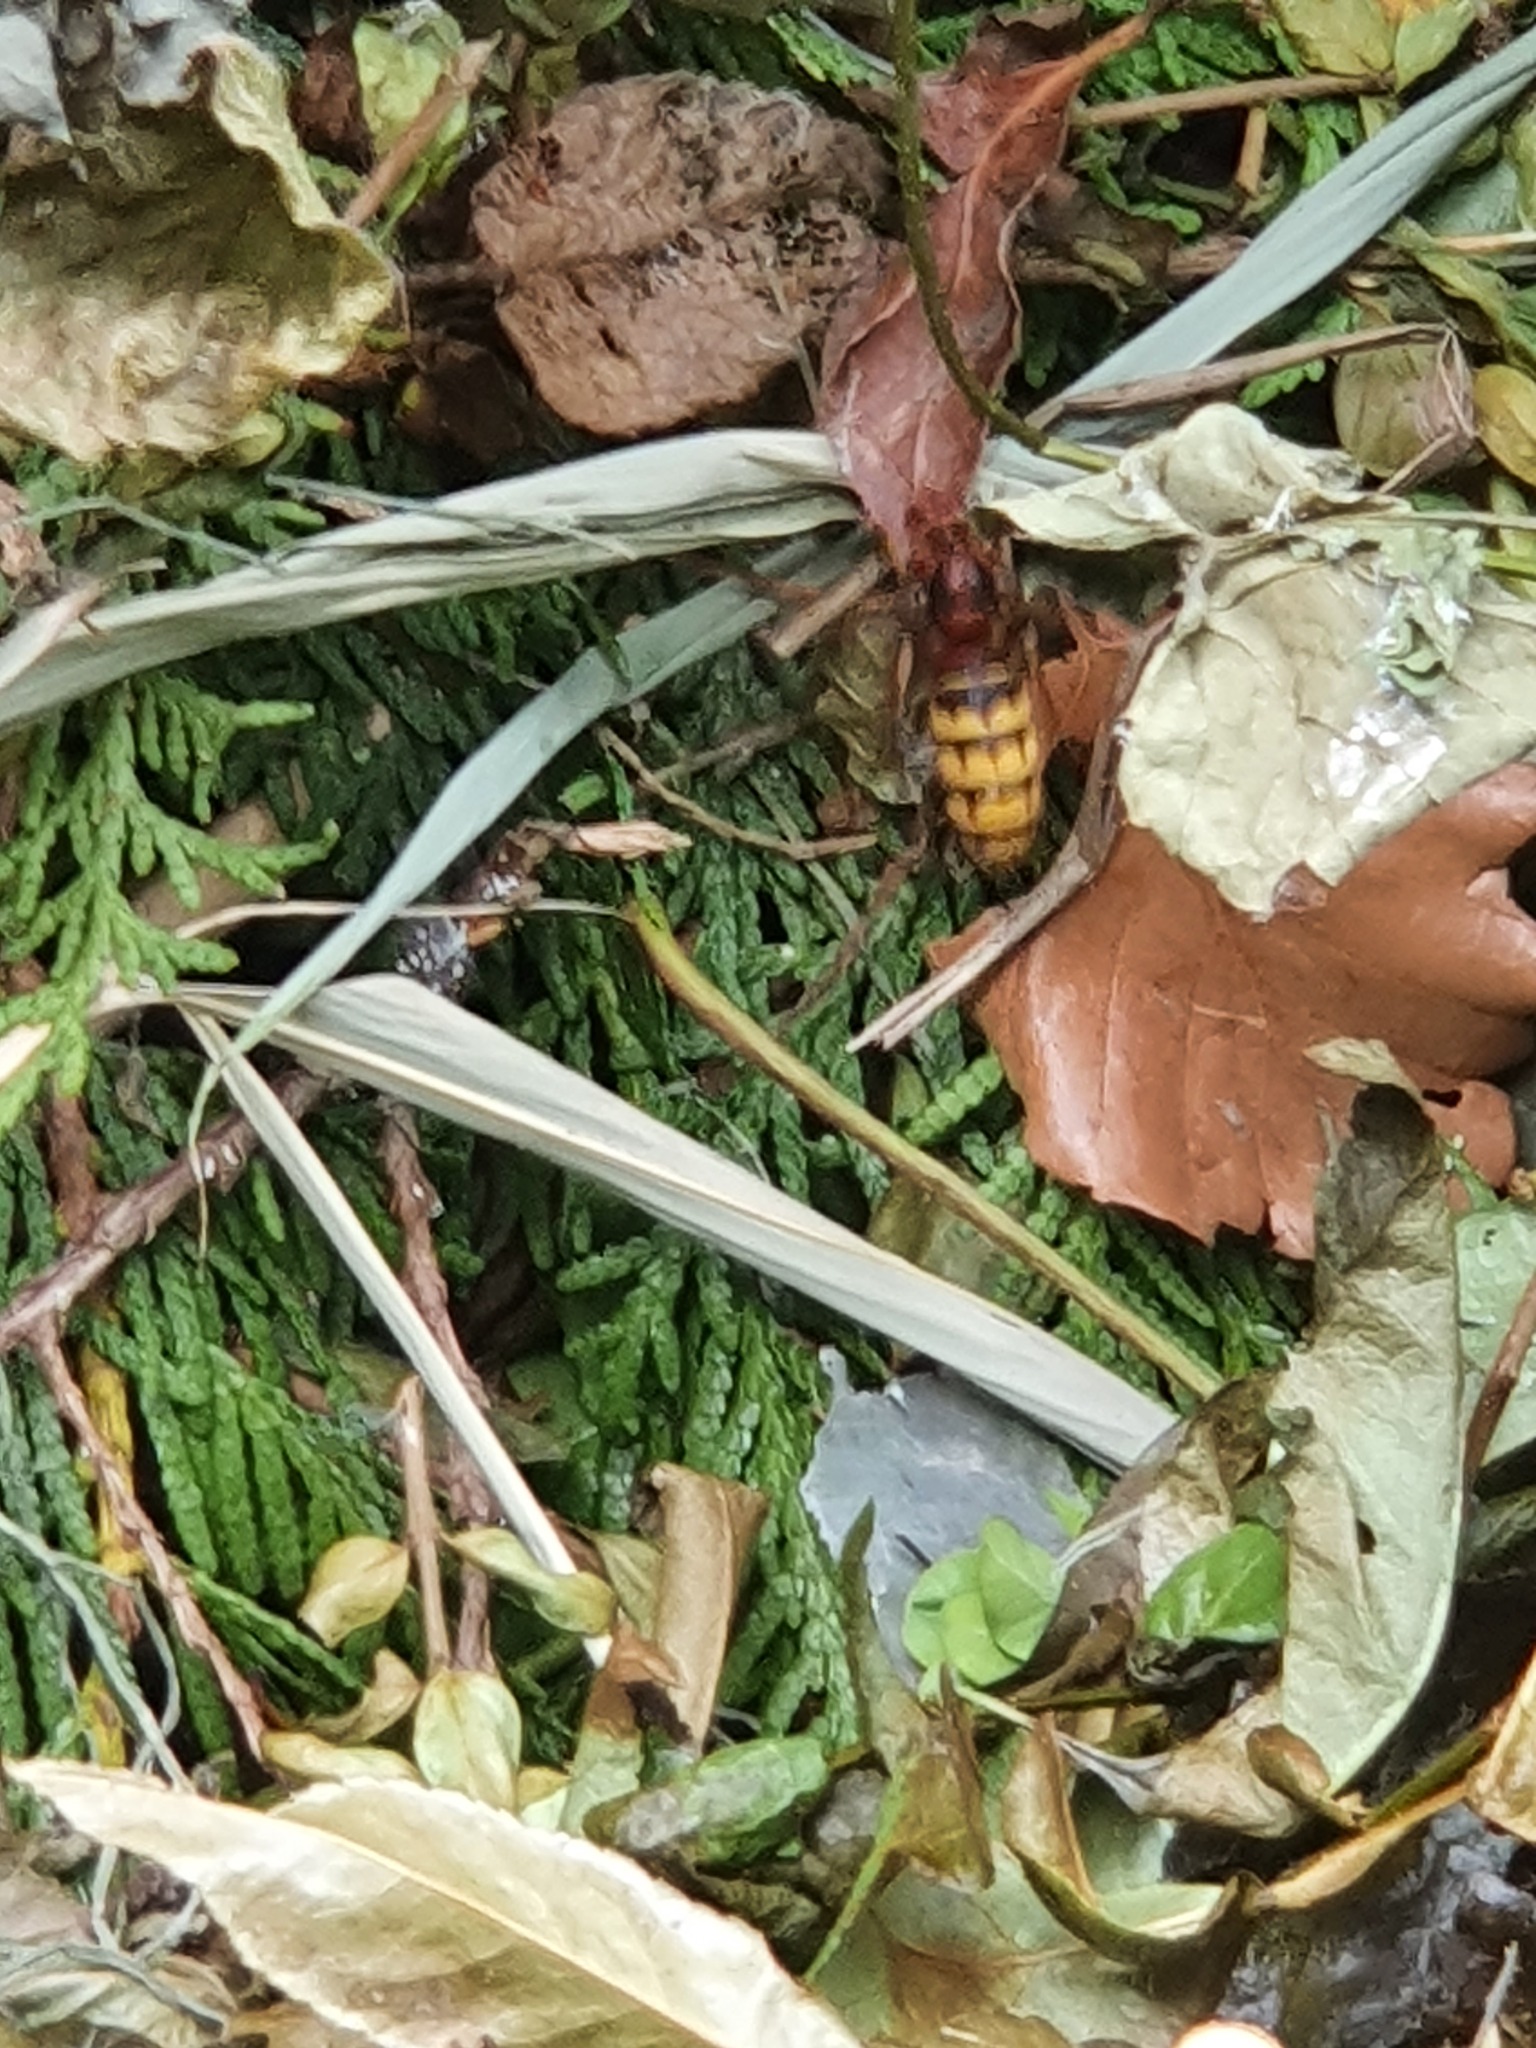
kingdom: Animalia
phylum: Arthropoda
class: Insecta
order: Hymenoptera
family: Vespidae
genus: Vespa
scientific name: Vespa crabro
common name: Hornet
